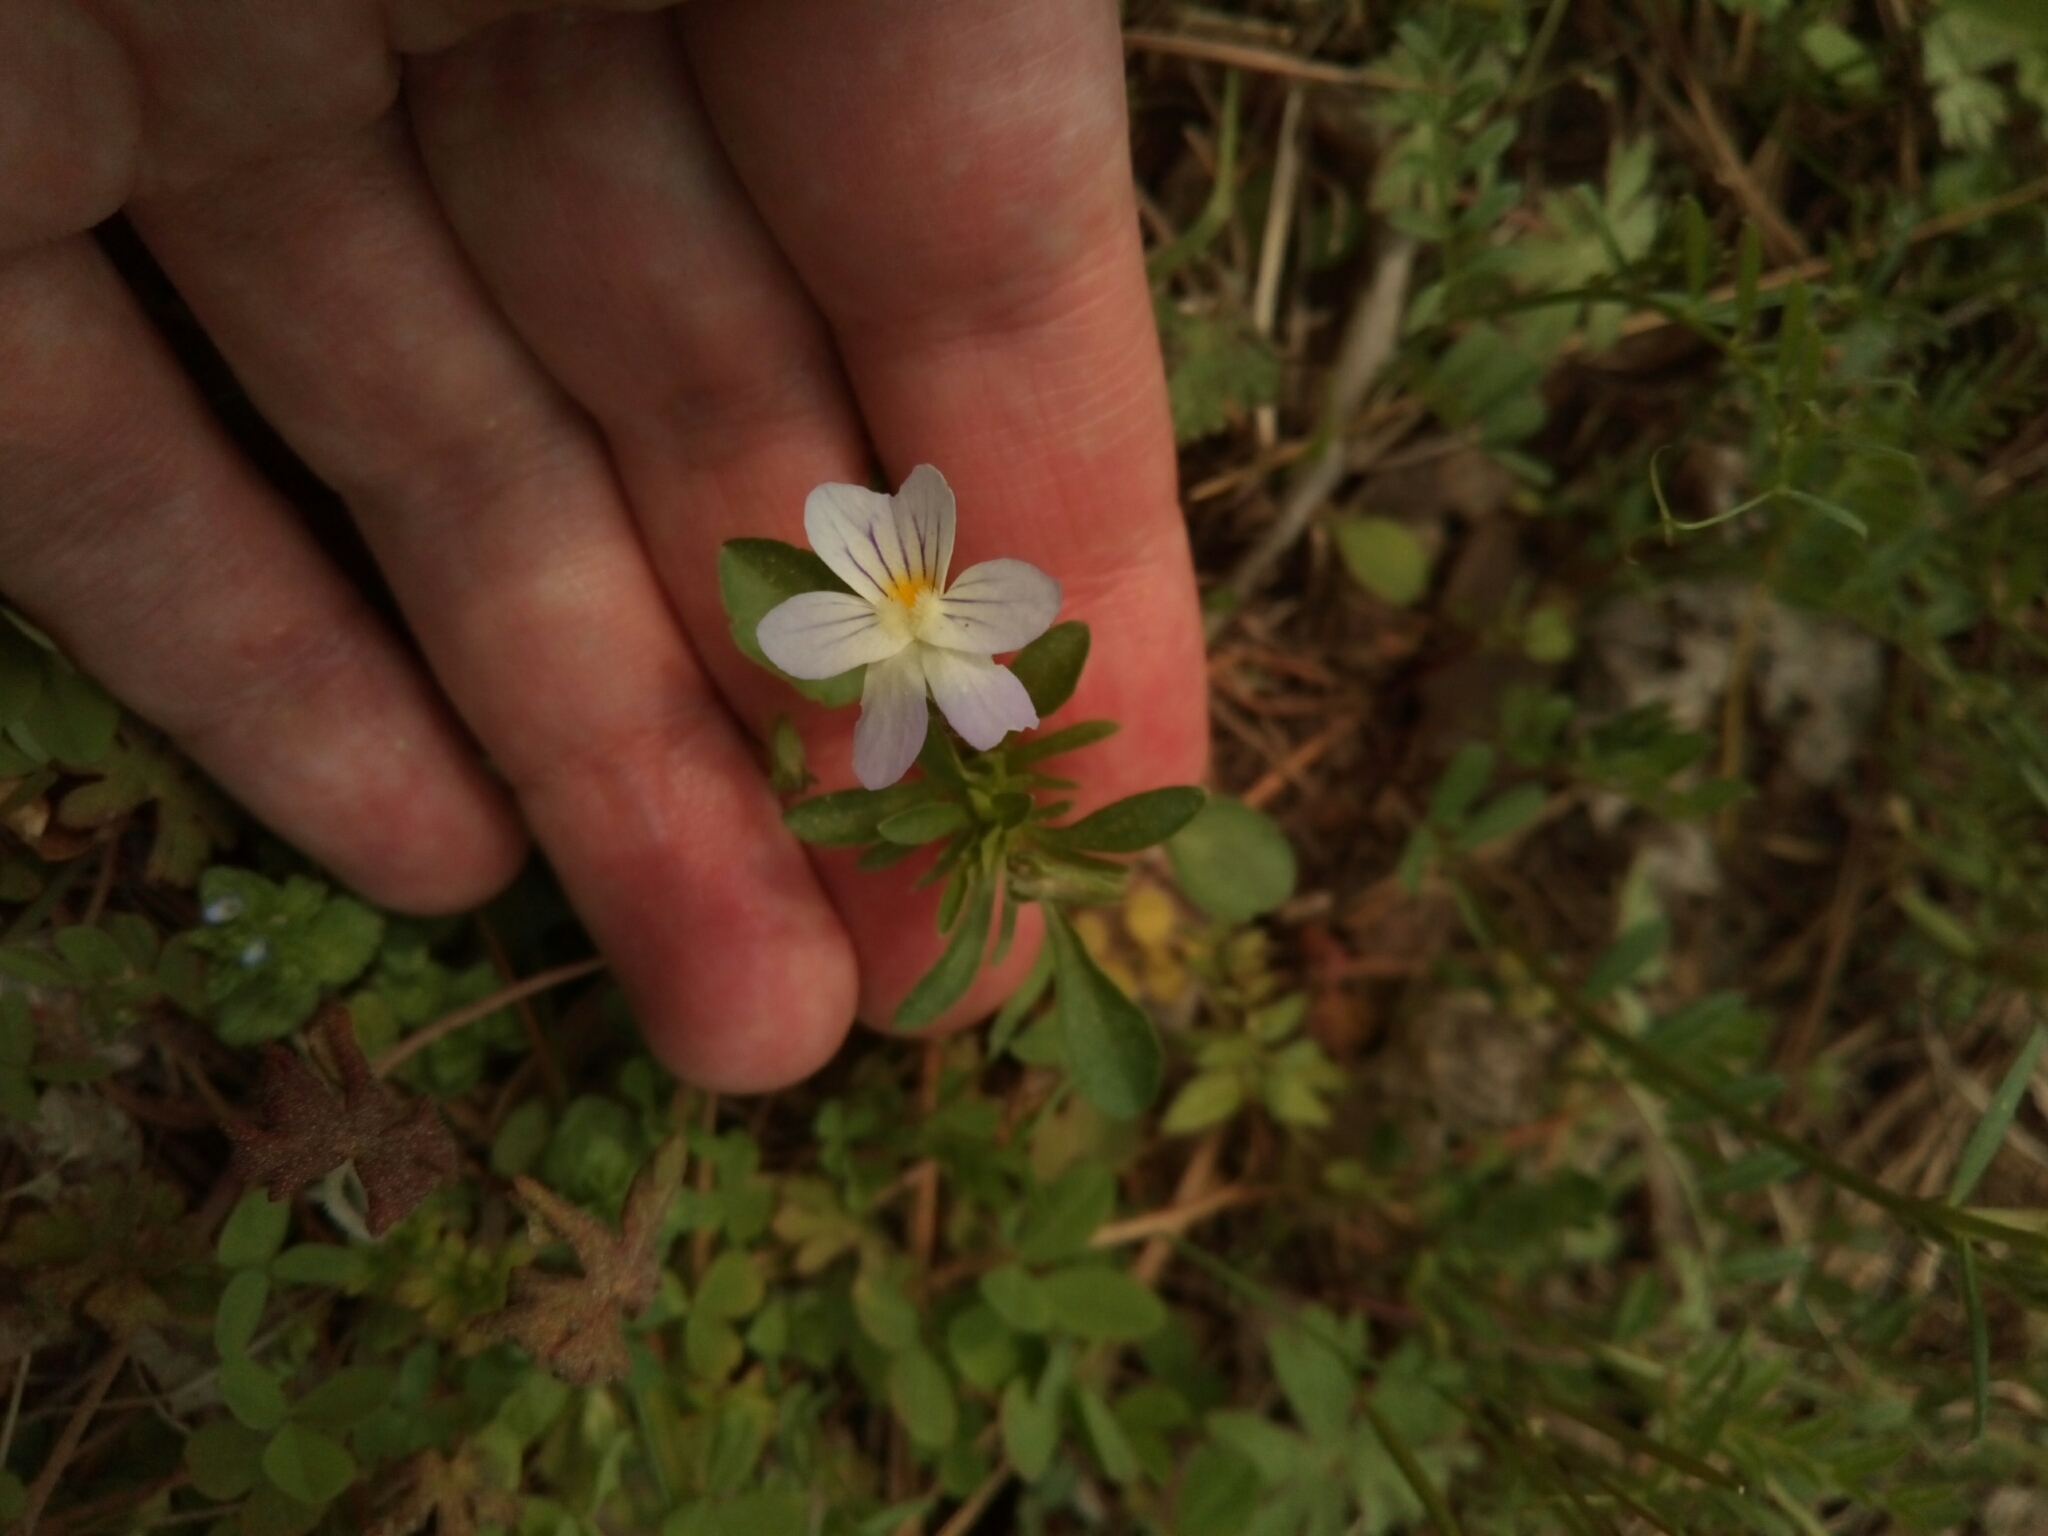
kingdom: Plantae
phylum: Tracheophyta
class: Magnoliopsida
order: Malpighiales
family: Violaceae
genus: Viola
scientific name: Viola rafinesquei
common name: American field pansy
